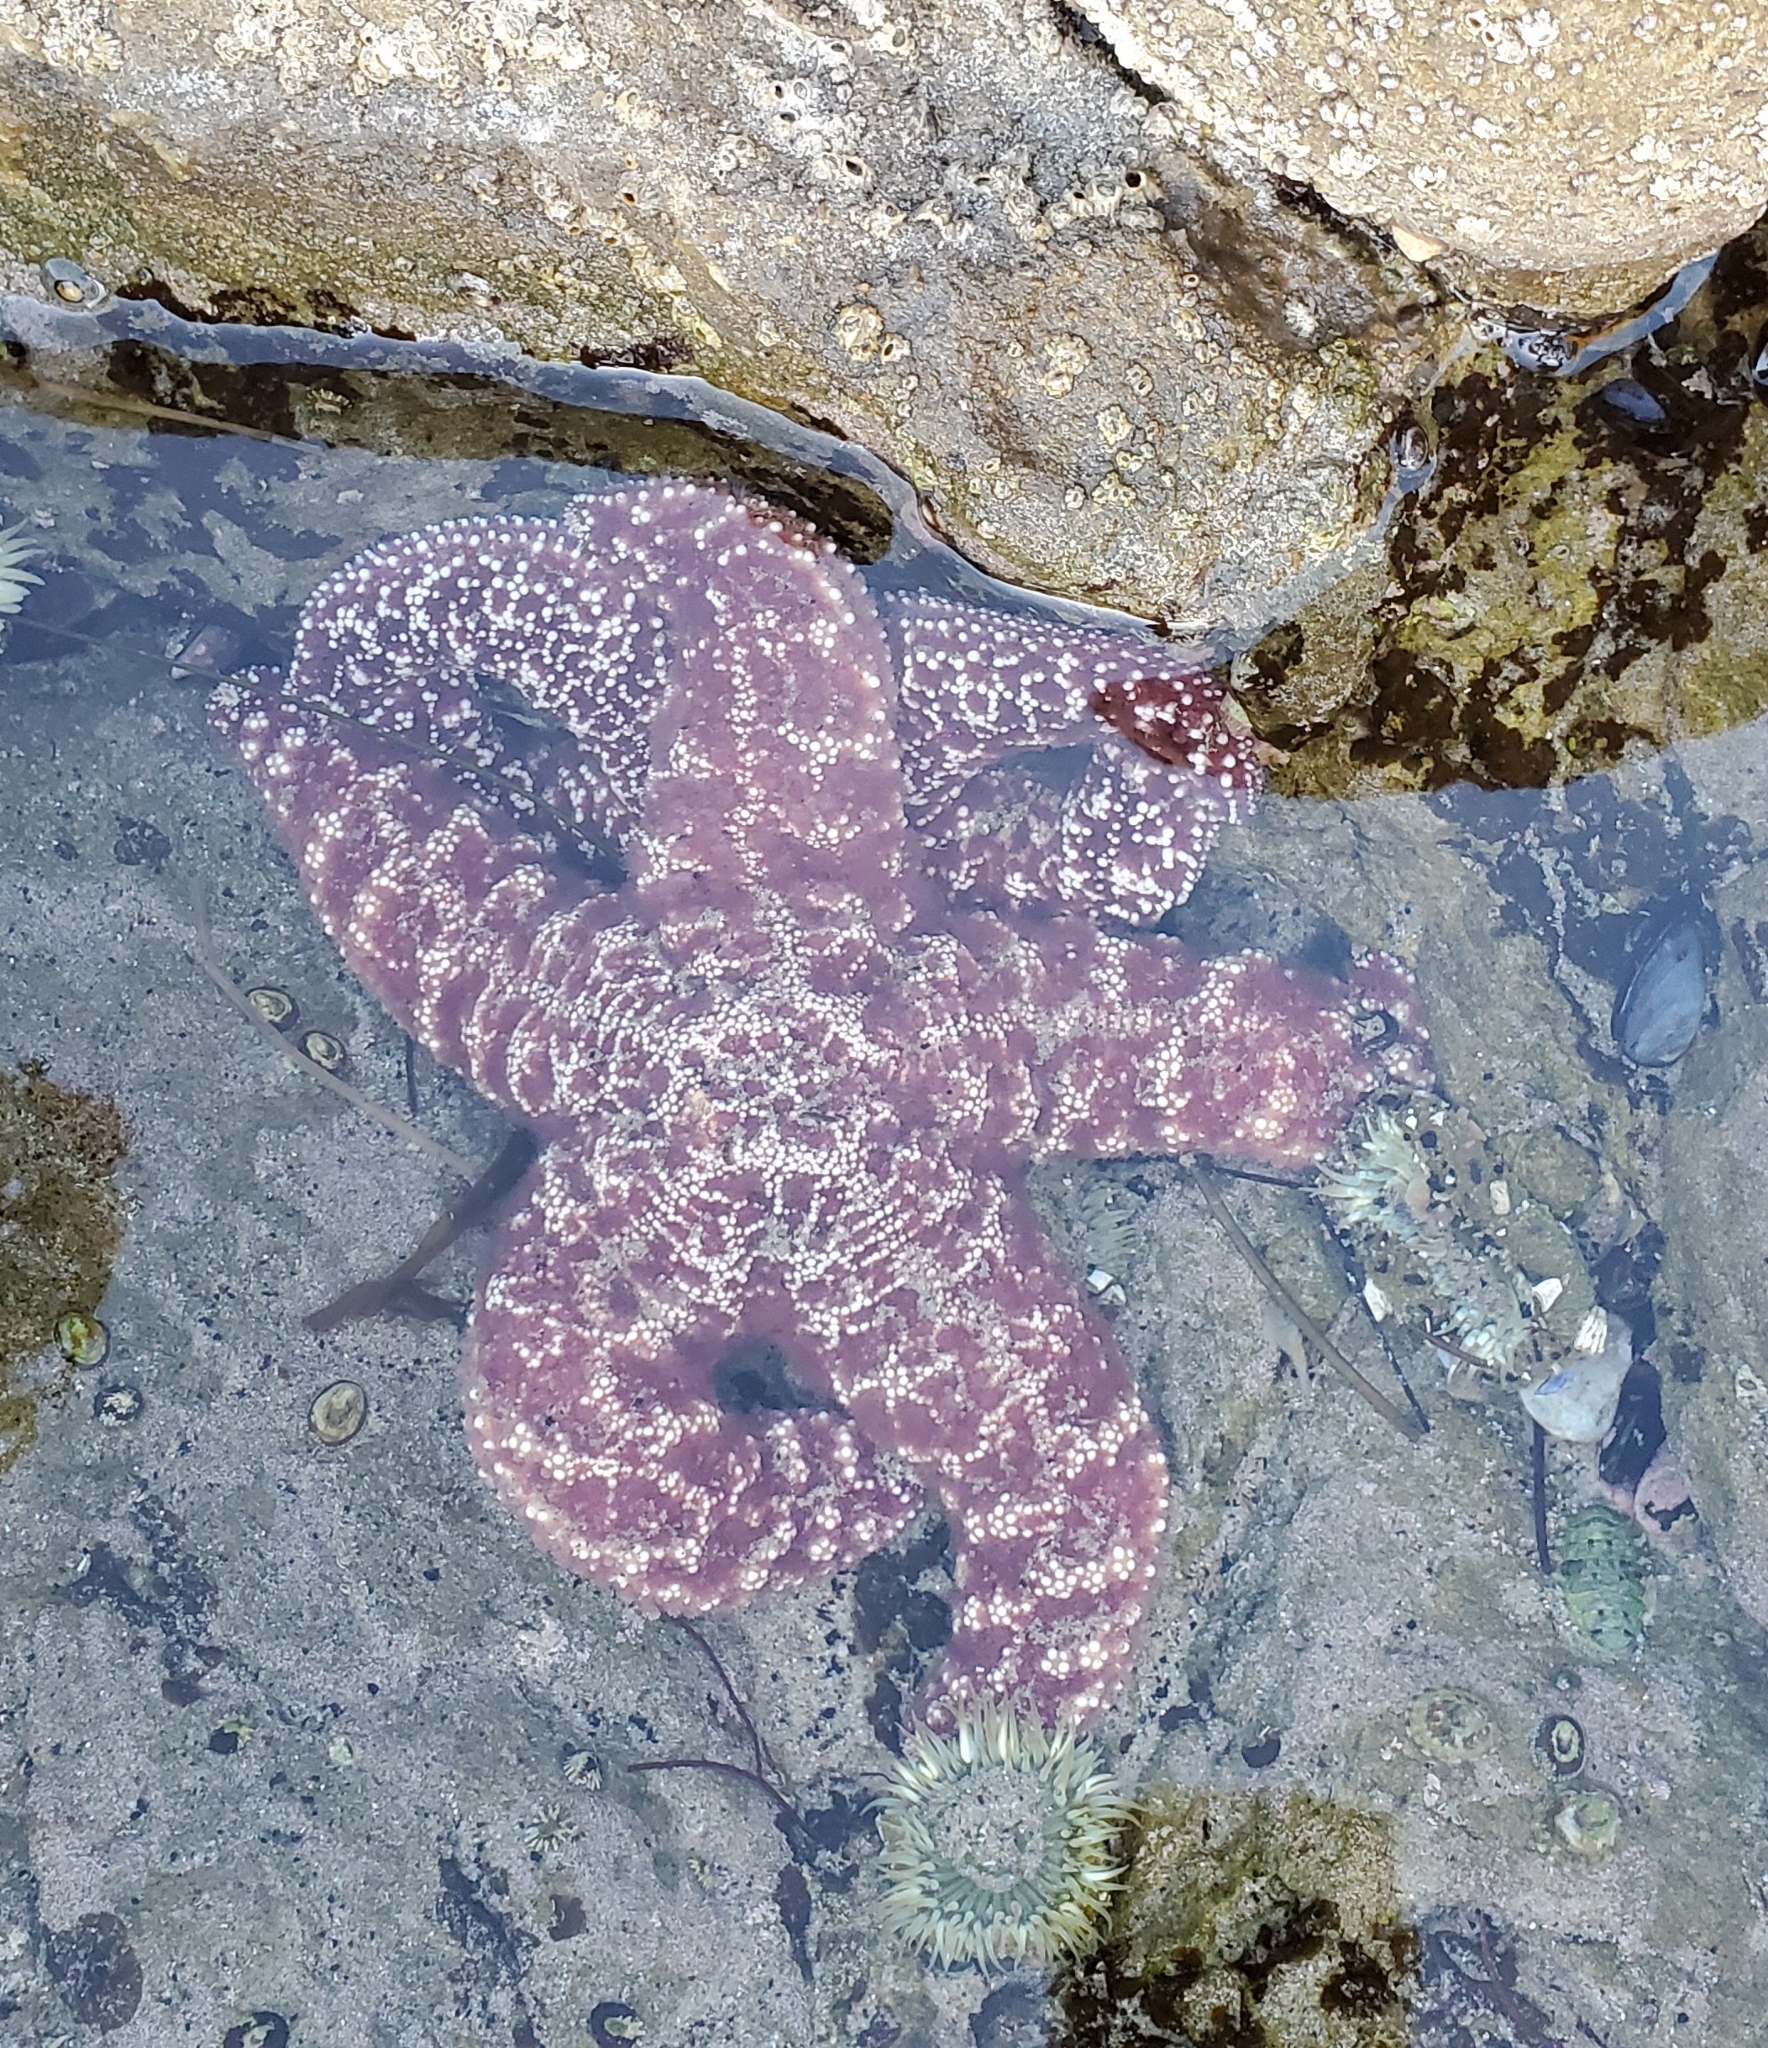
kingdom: Animalia
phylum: Echinodermata
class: Asteroidea
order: Forcipulatida
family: Asteriidae
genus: Pisaster
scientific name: Pisaster ochraceus
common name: Ochre stars
